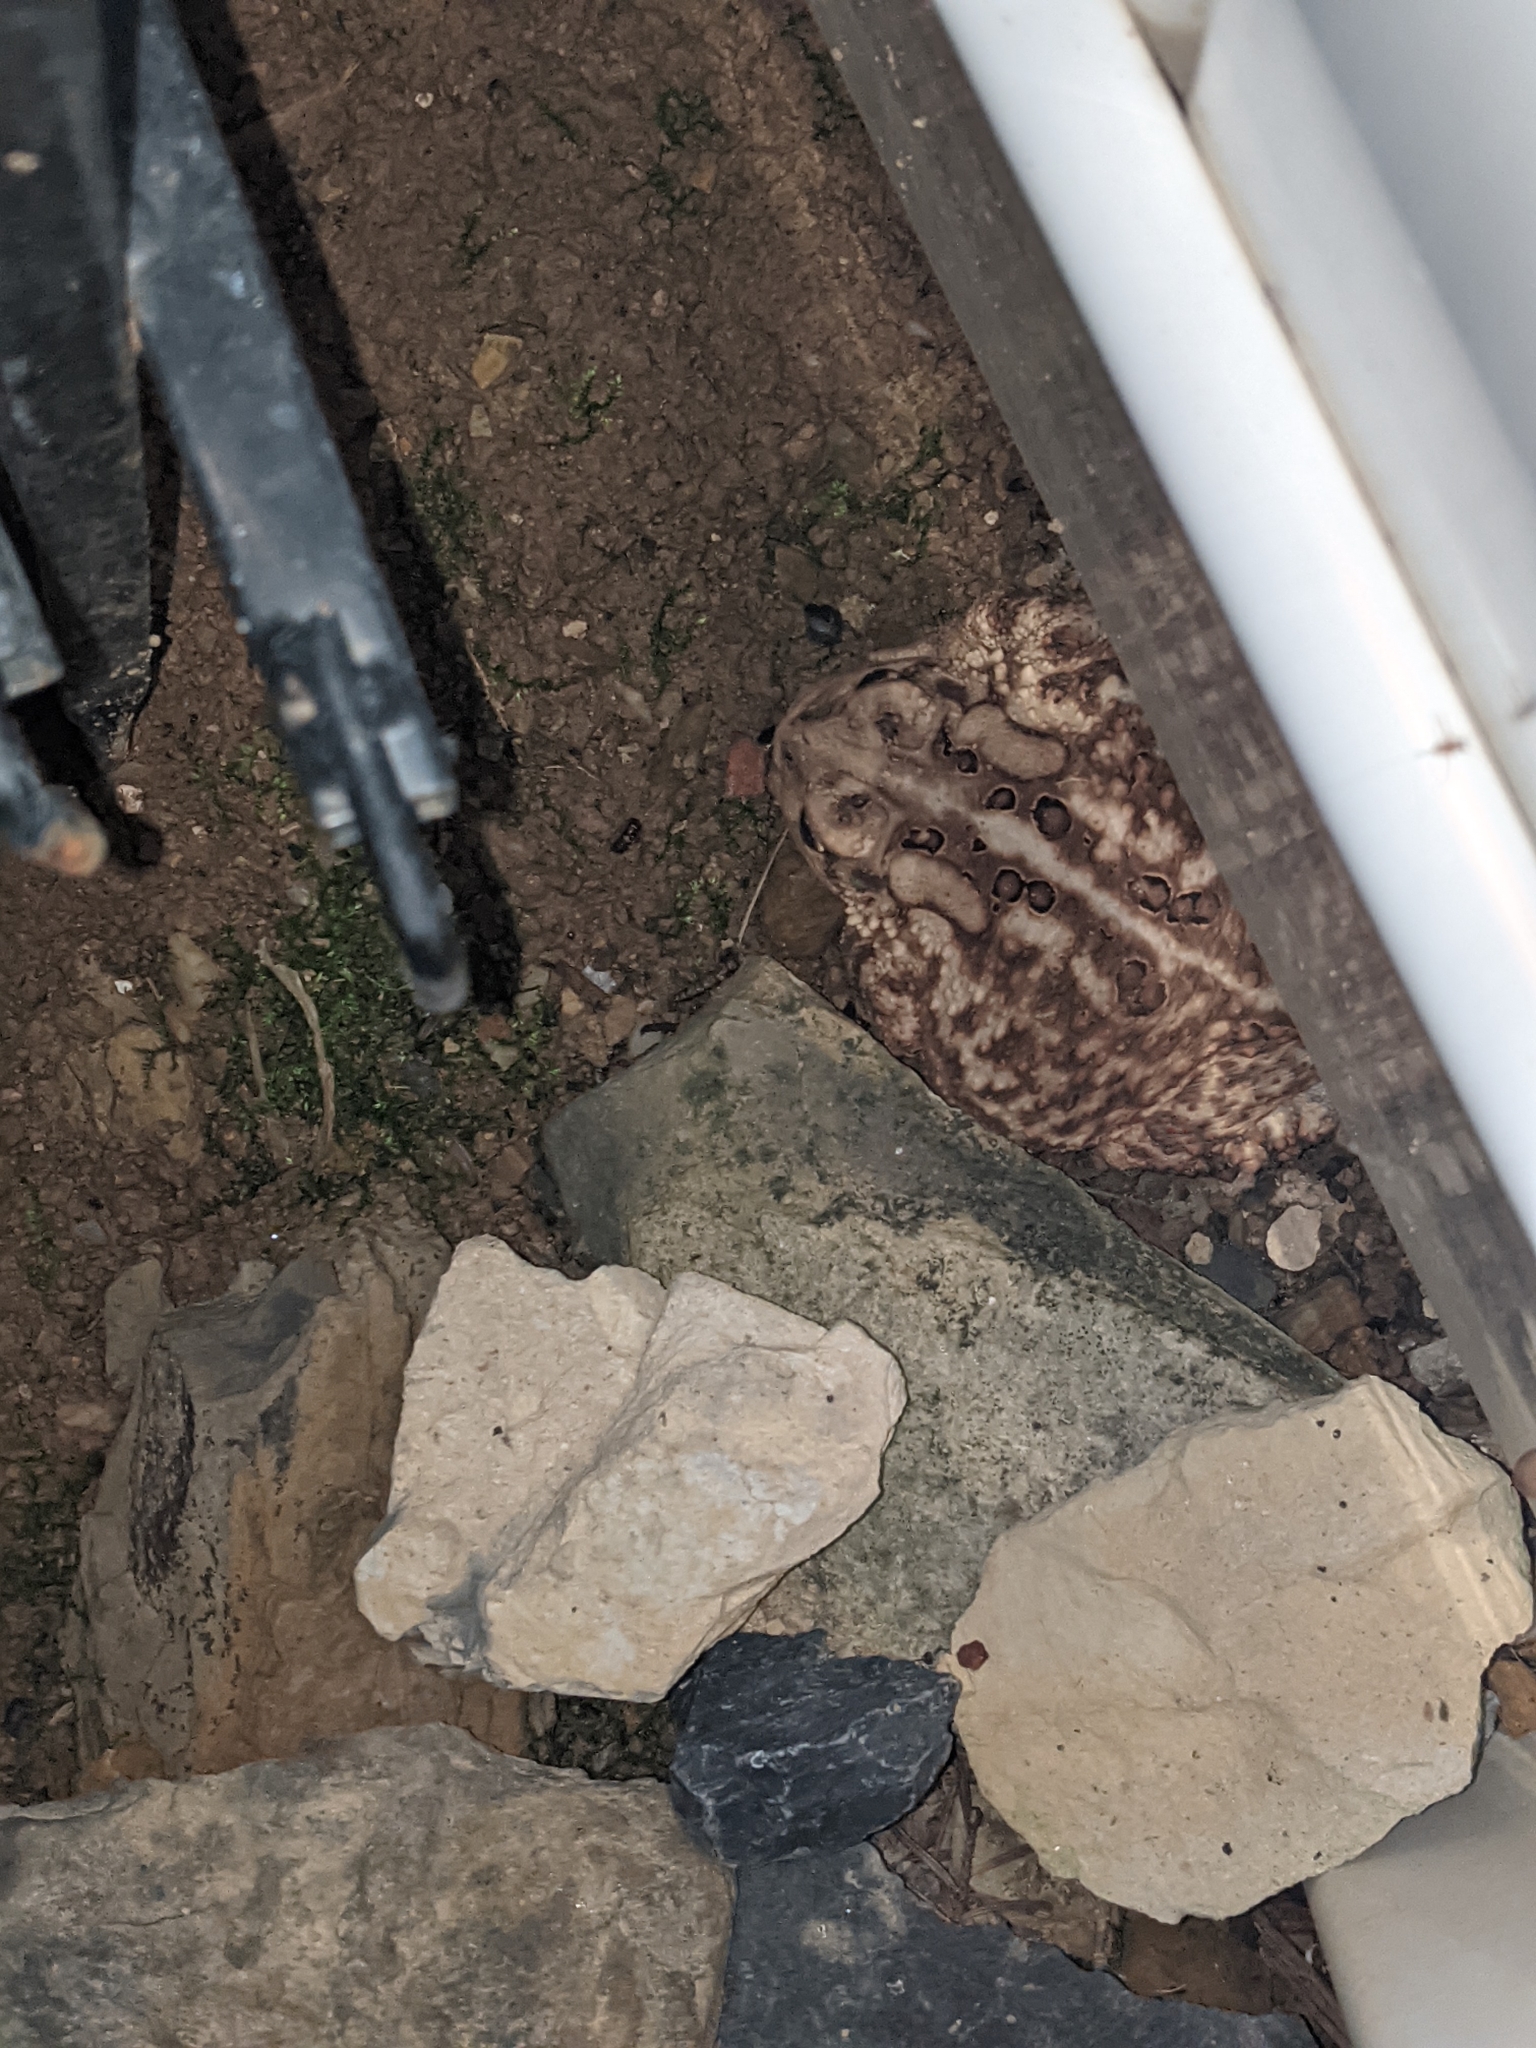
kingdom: Animalia
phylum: Chordata
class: Amphibia
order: Anura
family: Bufonidae
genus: Anaxyrus
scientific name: Anaxyrus americanus
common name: American toad
